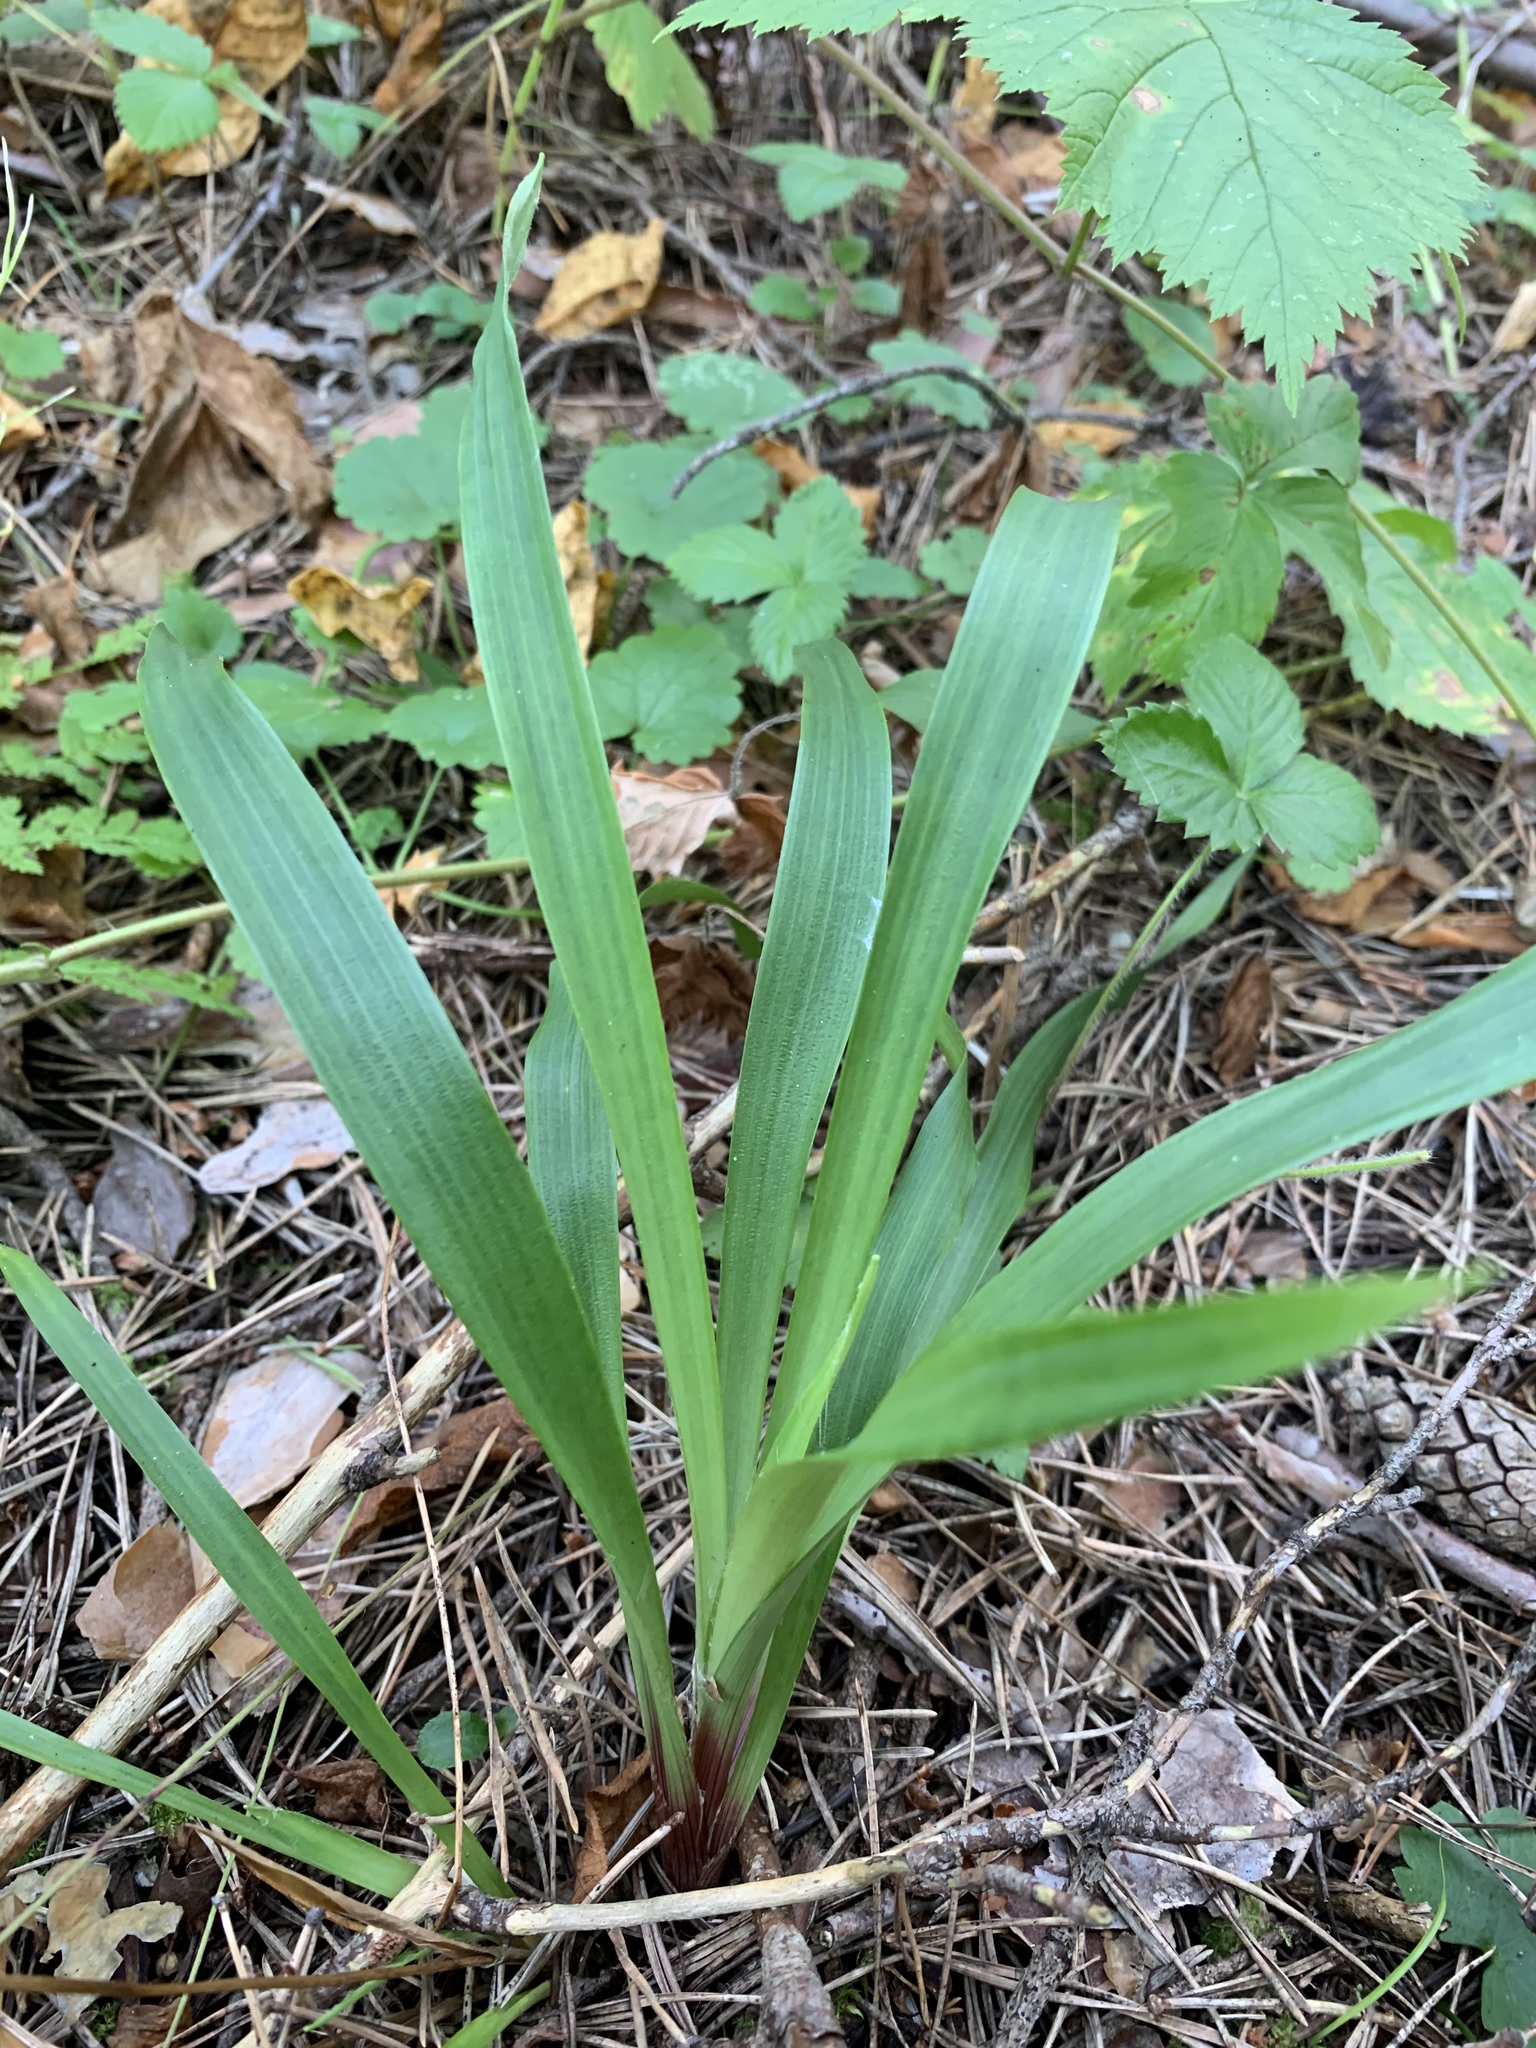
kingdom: Plantae
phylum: Tracheophyta
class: Liliopsida
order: Poales
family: Juncaceae
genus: Luzula
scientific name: Luzula pilosa
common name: Hairy wood-rush
